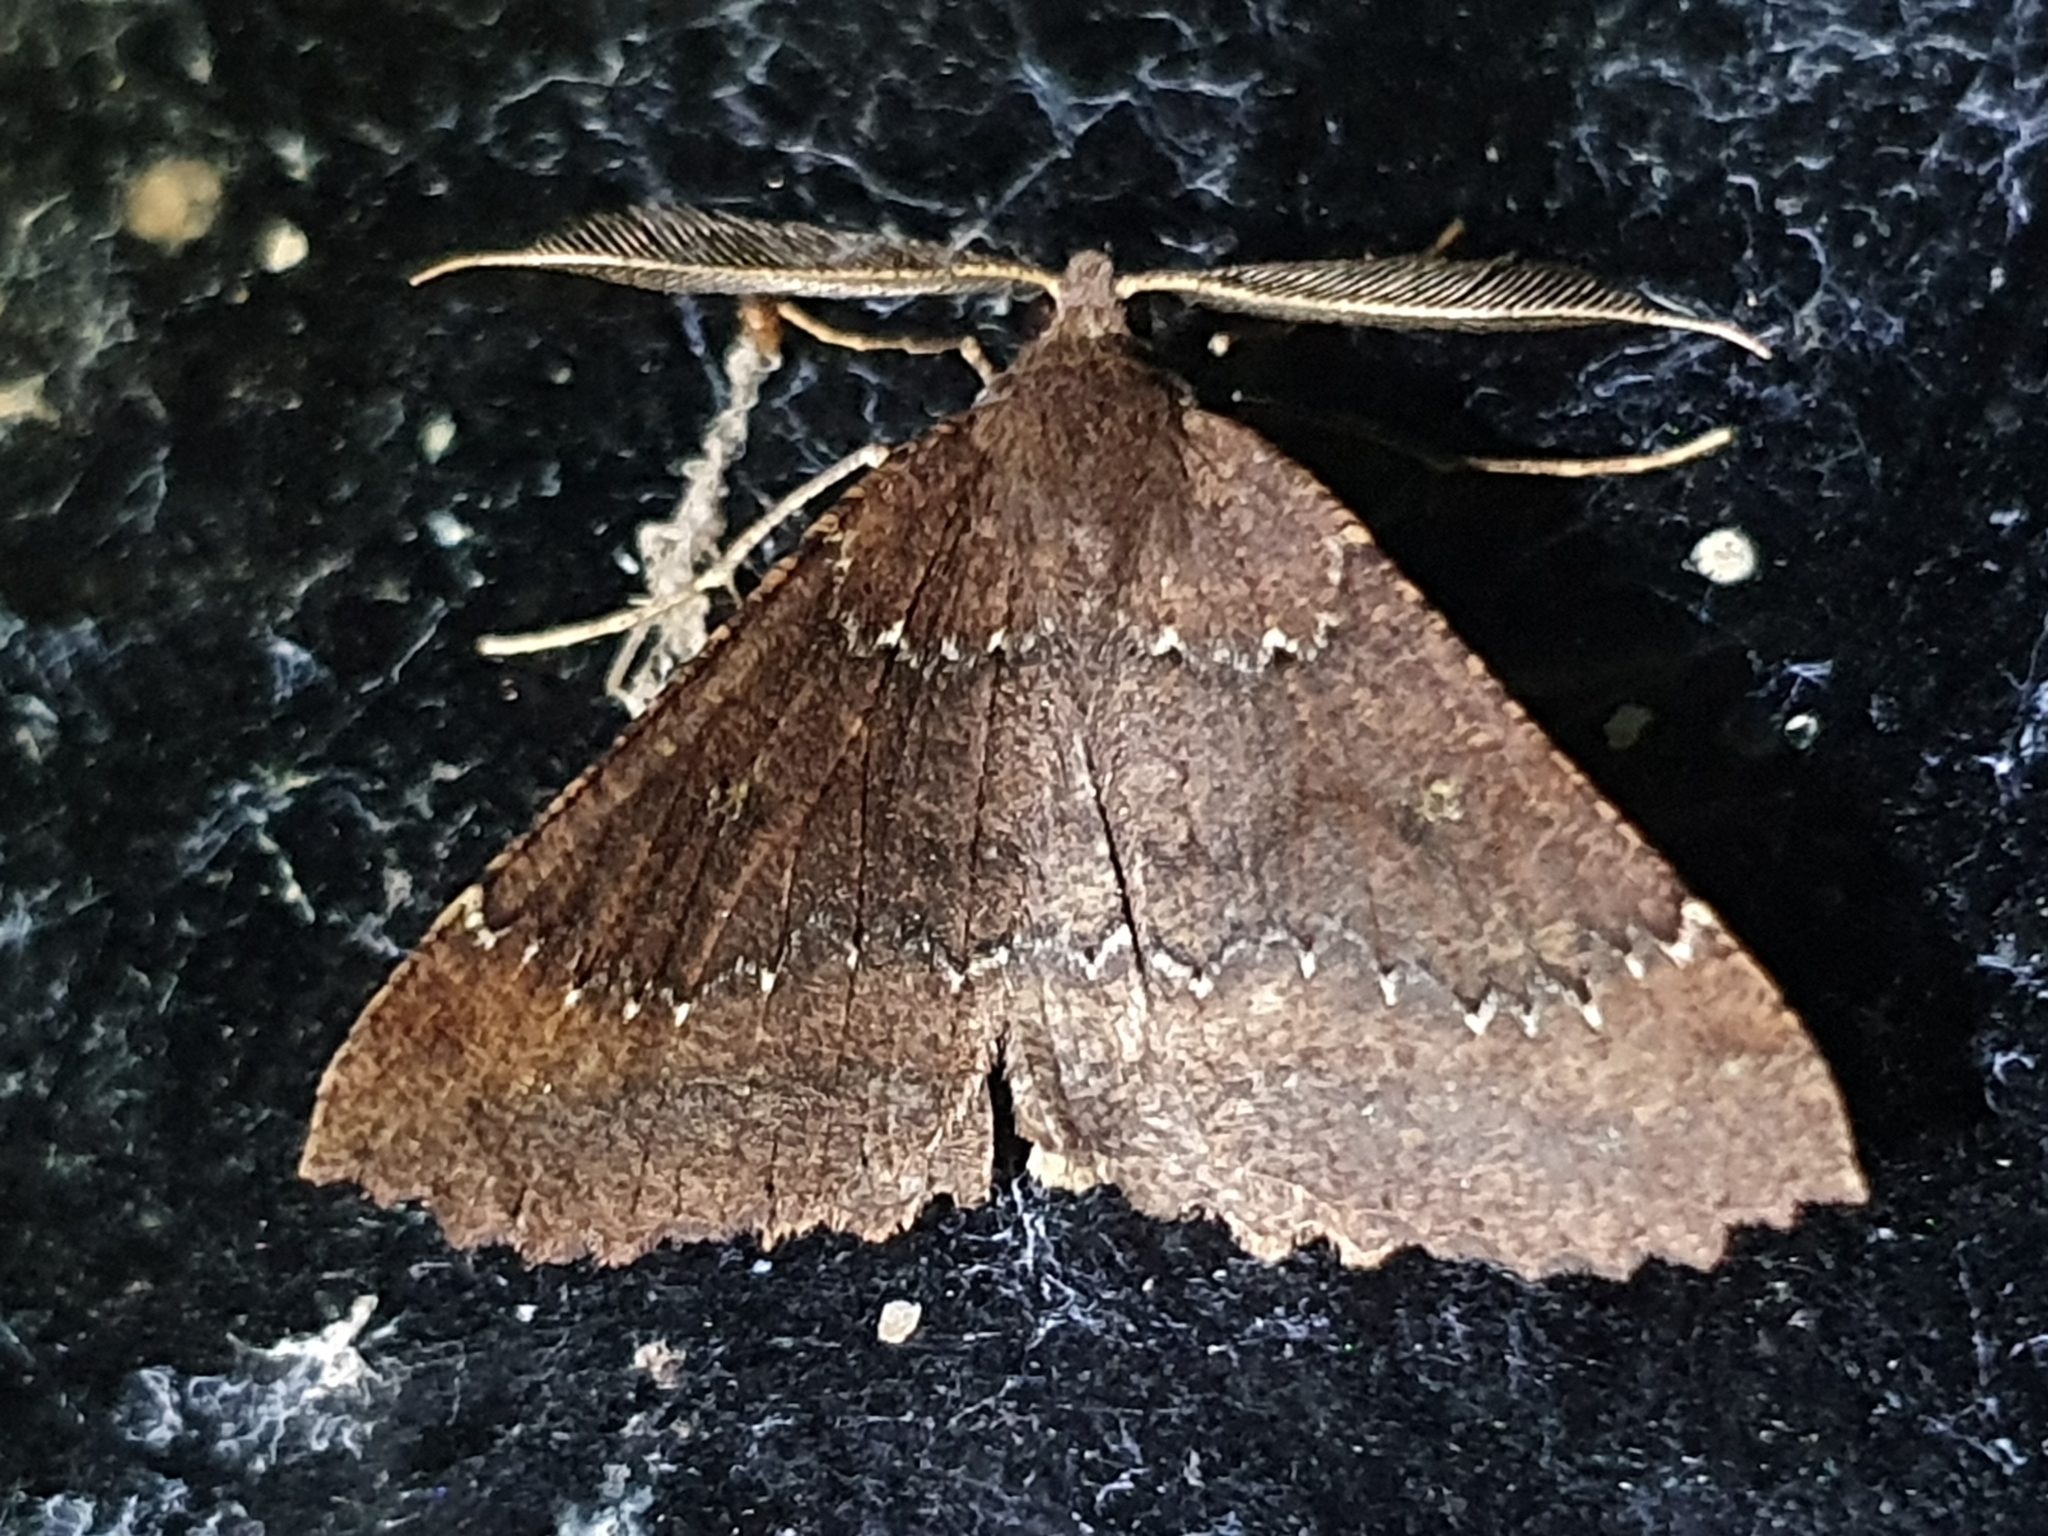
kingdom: Animalia
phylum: Arthropoda
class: Insecta
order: Lepidoptera
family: Geometridae
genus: Cleora
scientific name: Cleora scriptaria
